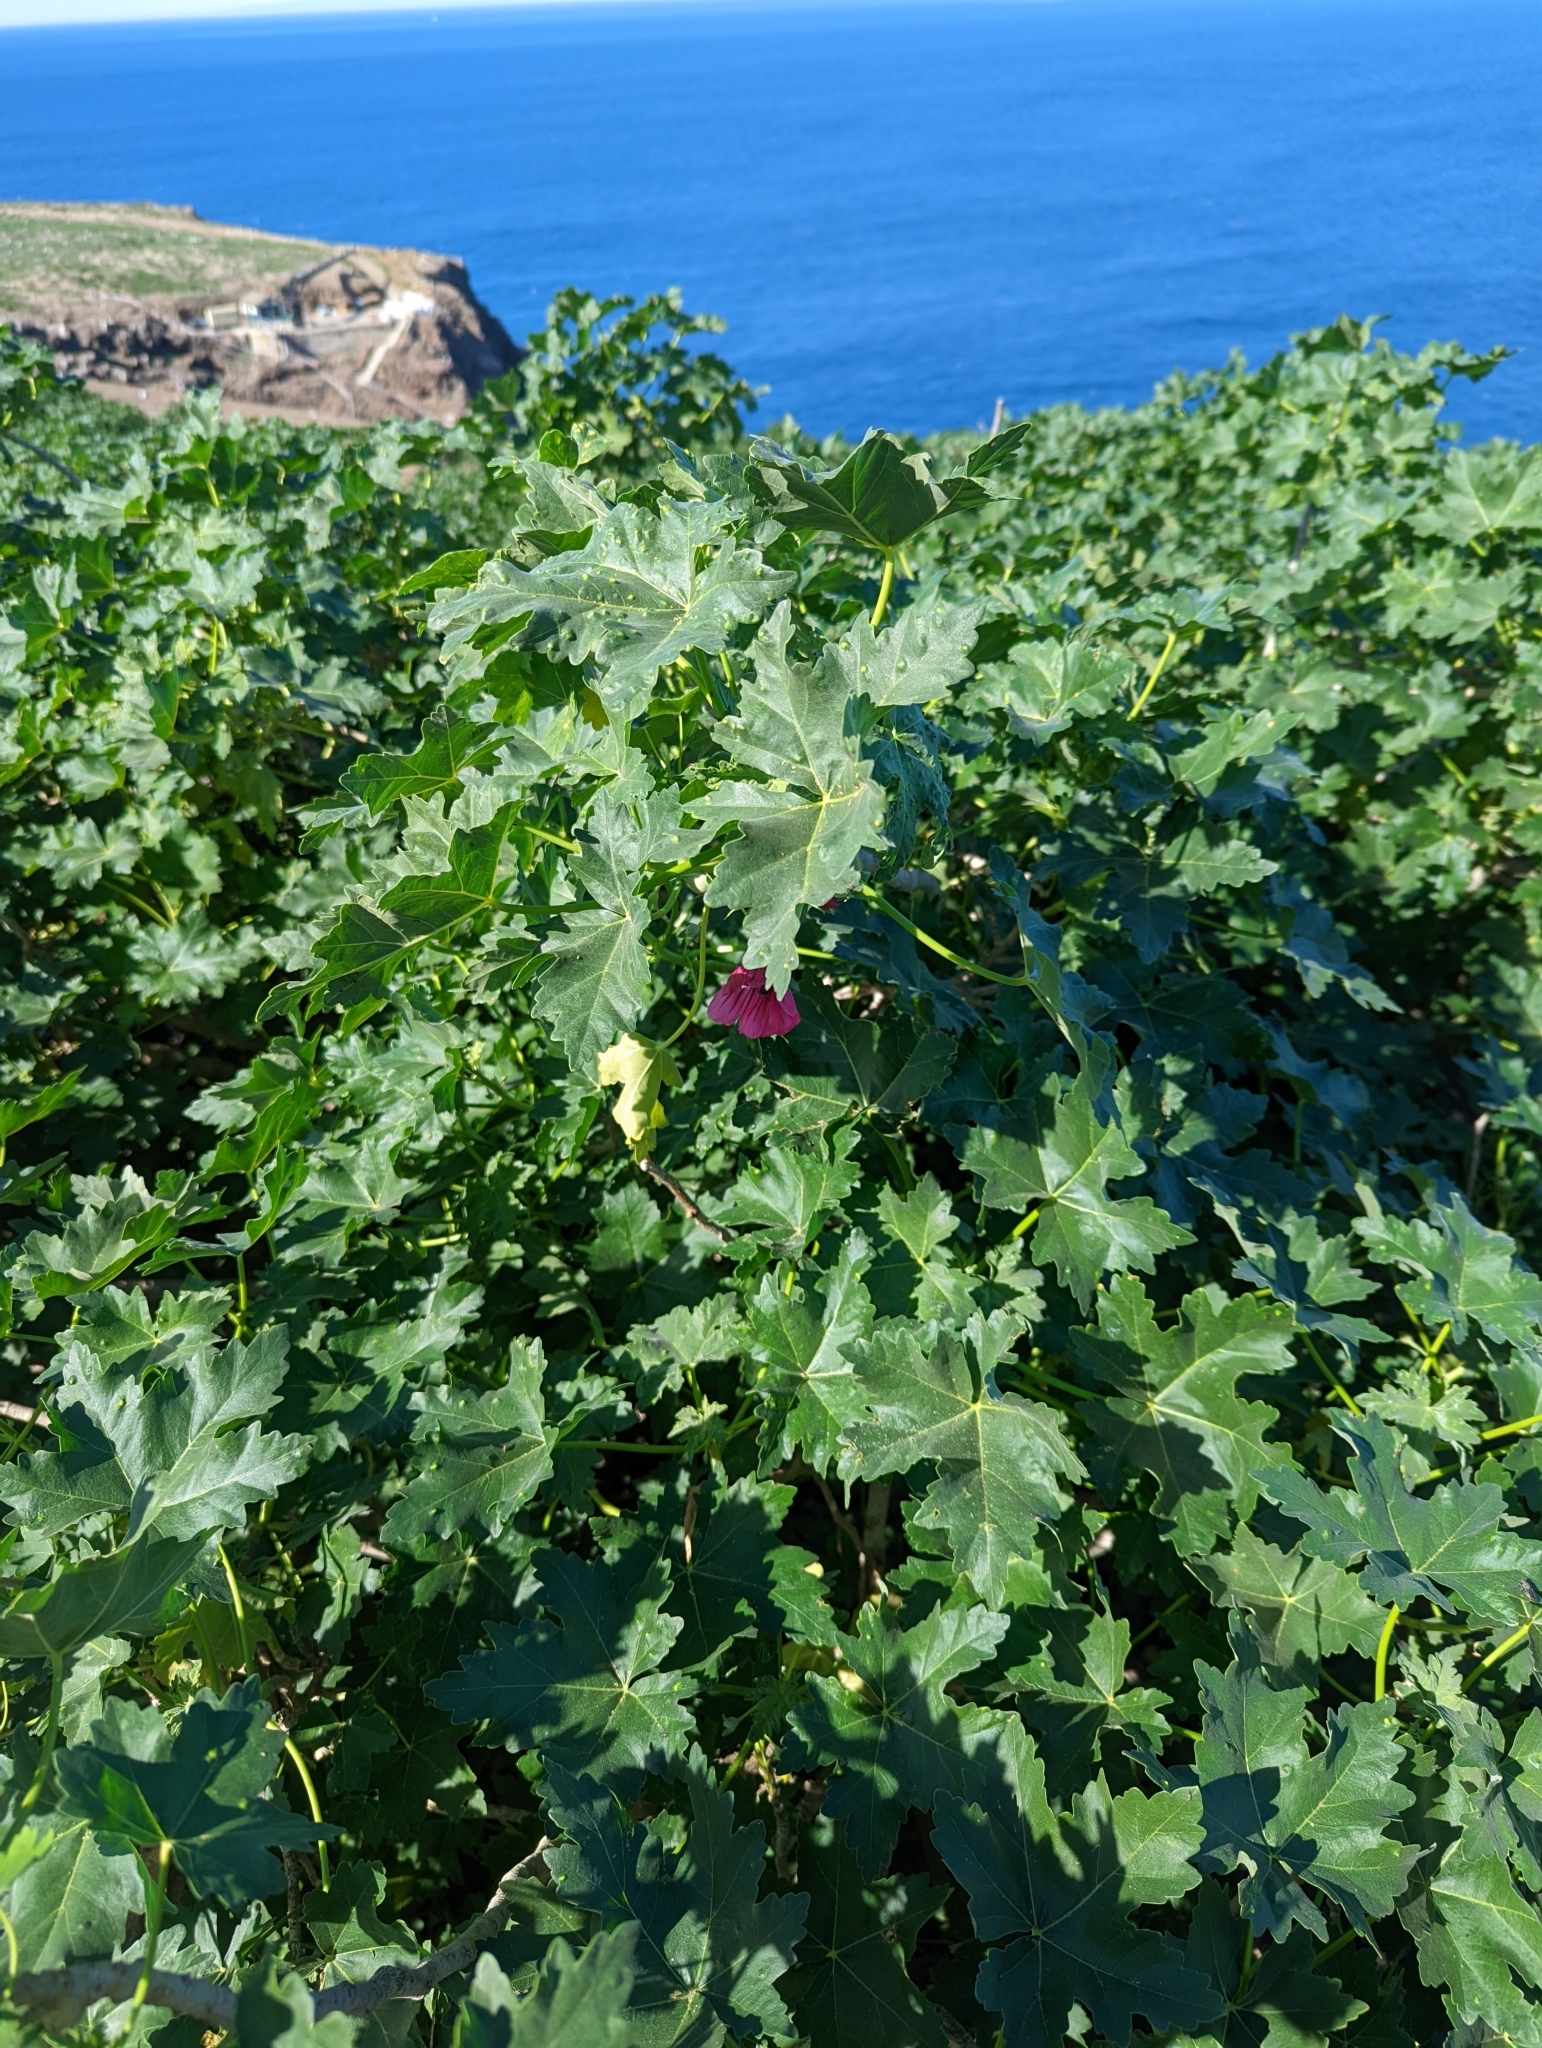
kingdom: Plantae
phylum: Tracheophyta
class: Magnoliopsida
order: Malvales
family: Malvaceae
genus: Malva
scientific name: Malva assurgentiflora
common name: Island mallow
